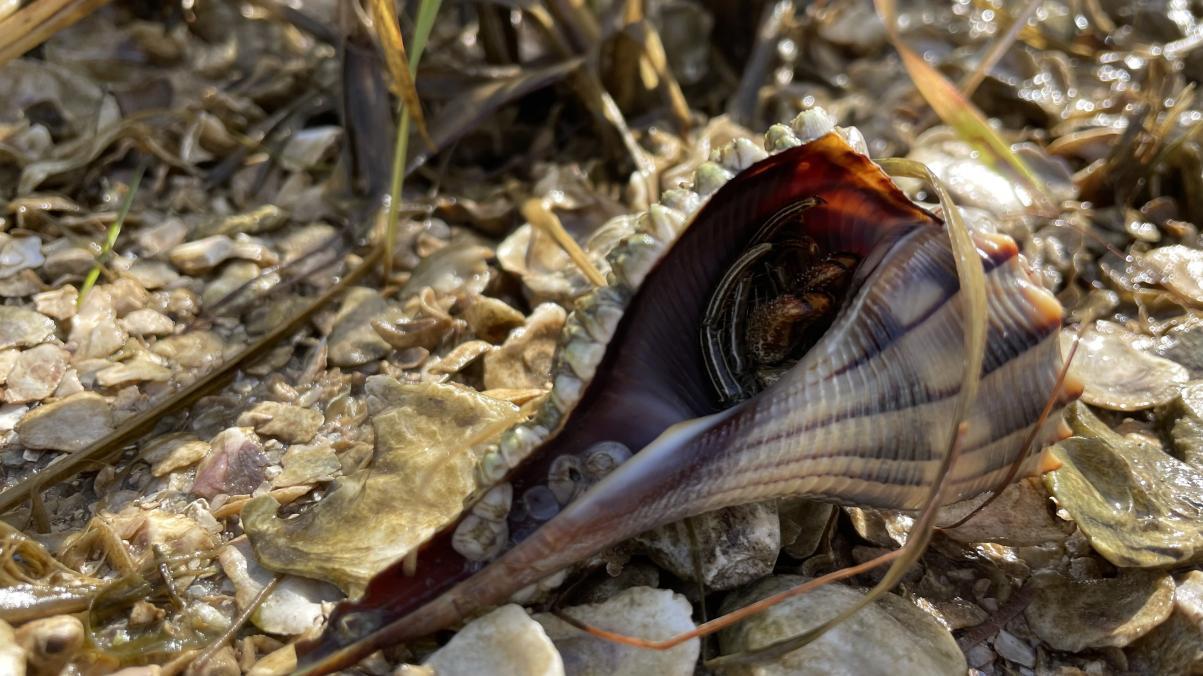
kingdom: Animalia
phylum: Mollusca
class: Gastropoda
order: Neogastropoda
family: Busyconidae
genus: Sinistrofulgur
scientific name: Sinistrofulgur sinistrum
